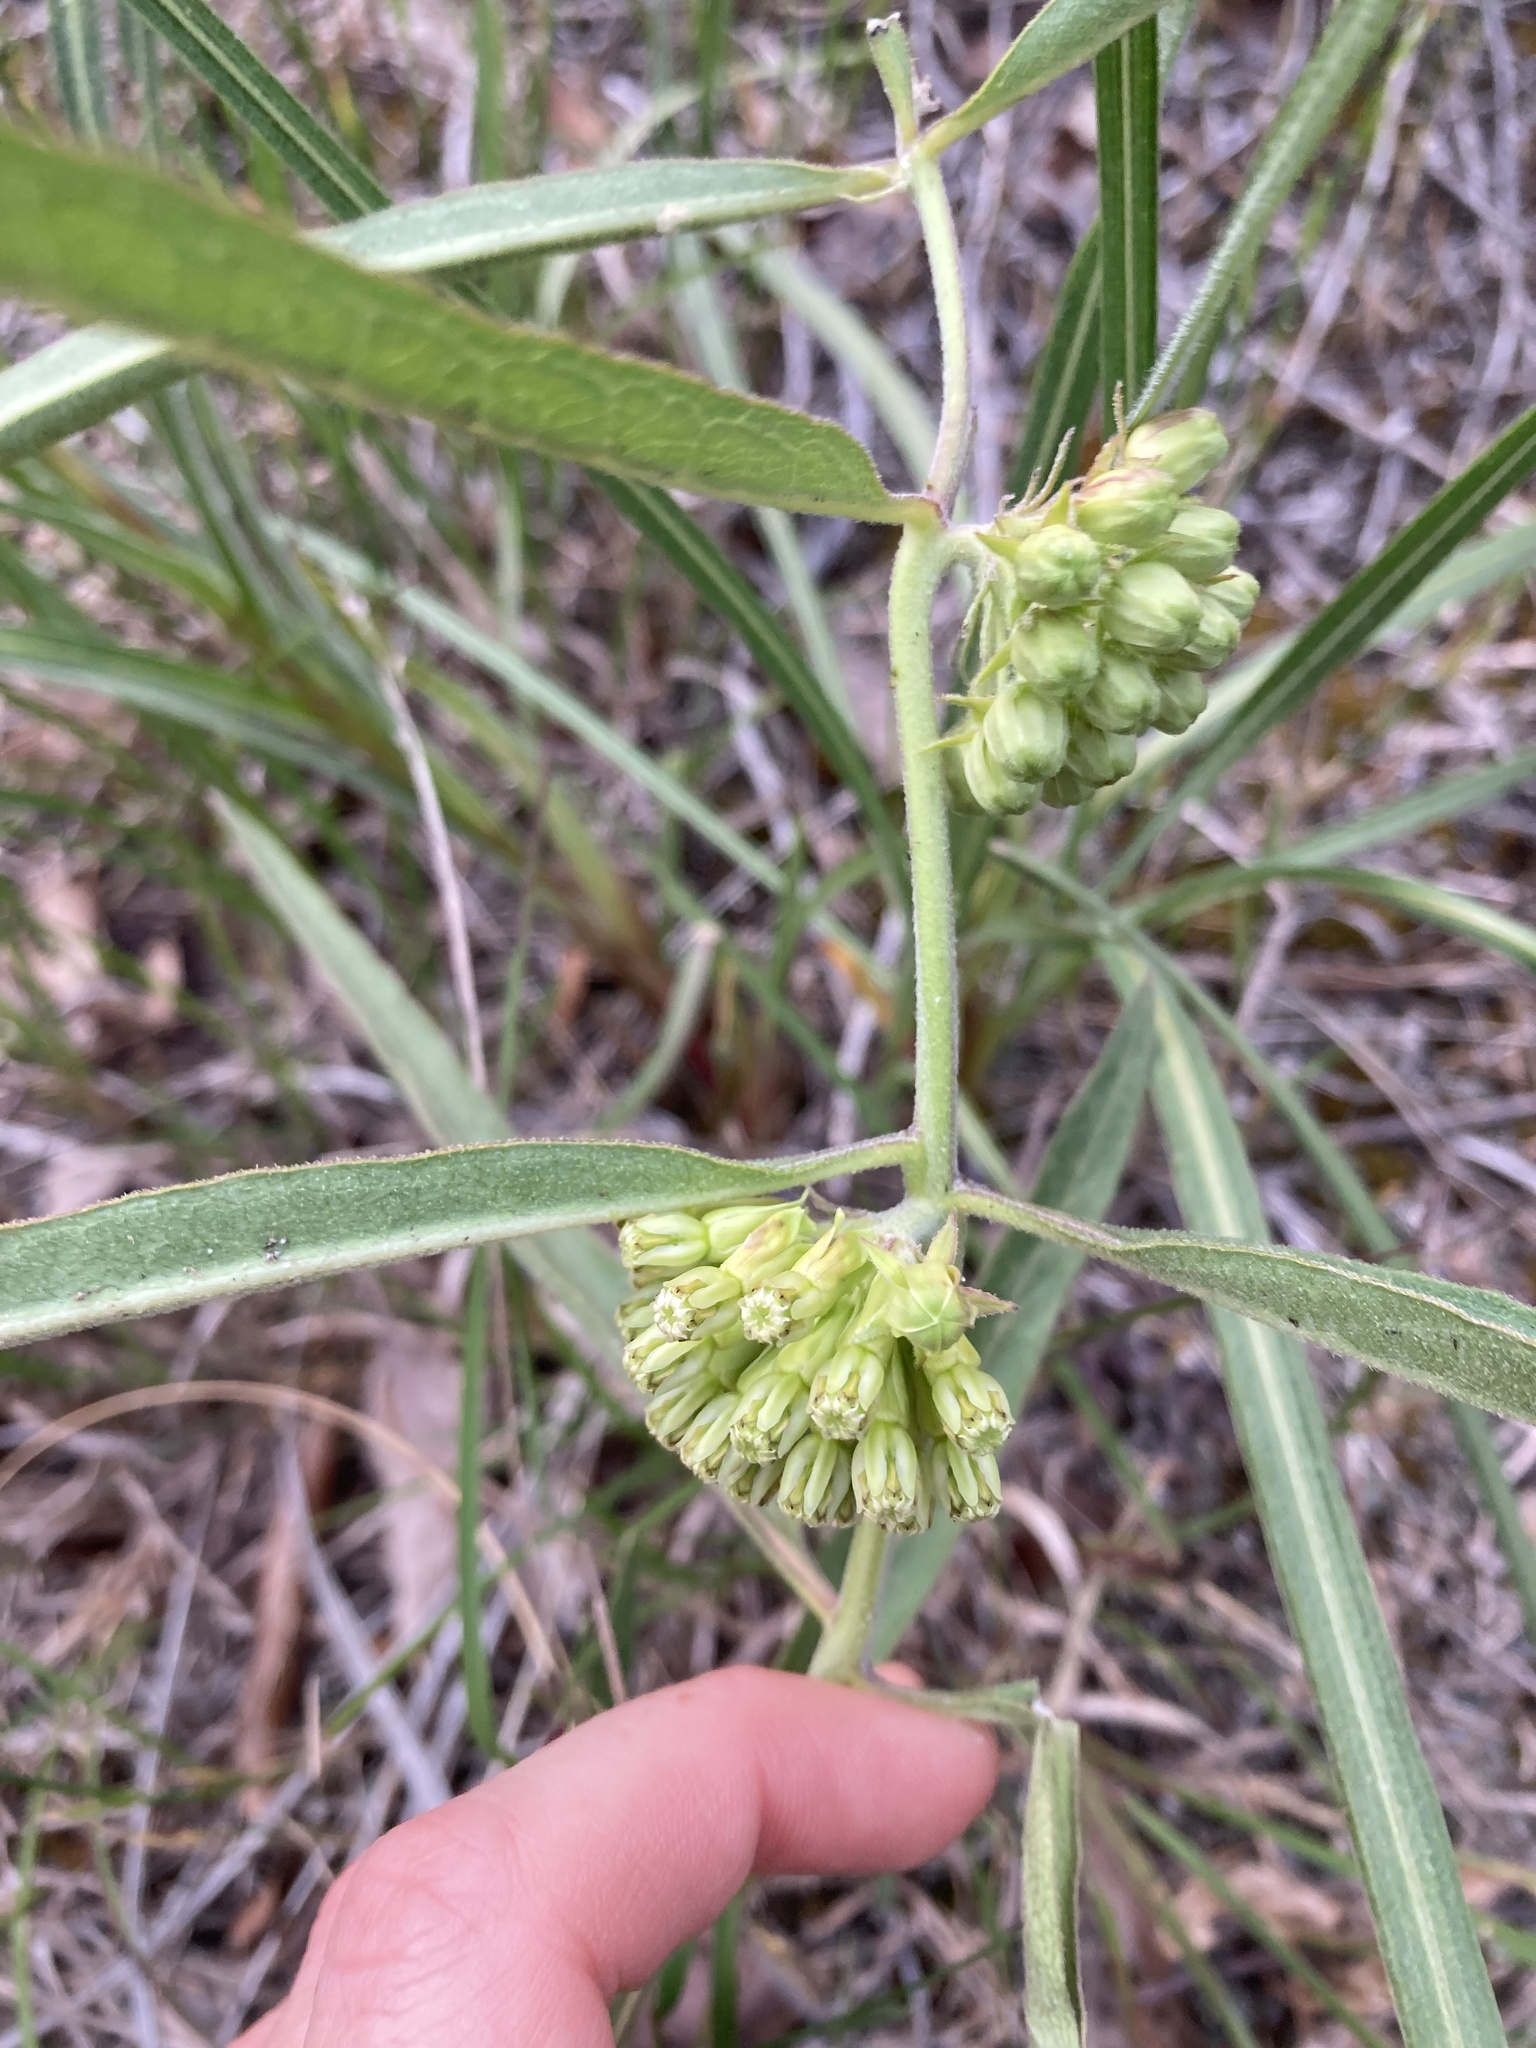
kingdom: Plantae
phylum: Tracheophyta
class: Magnoliopsida
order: Gentianales
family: Apocynaceae
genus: Asclepias
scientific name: Asclepias viridiflora
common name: Green comet milkweed
